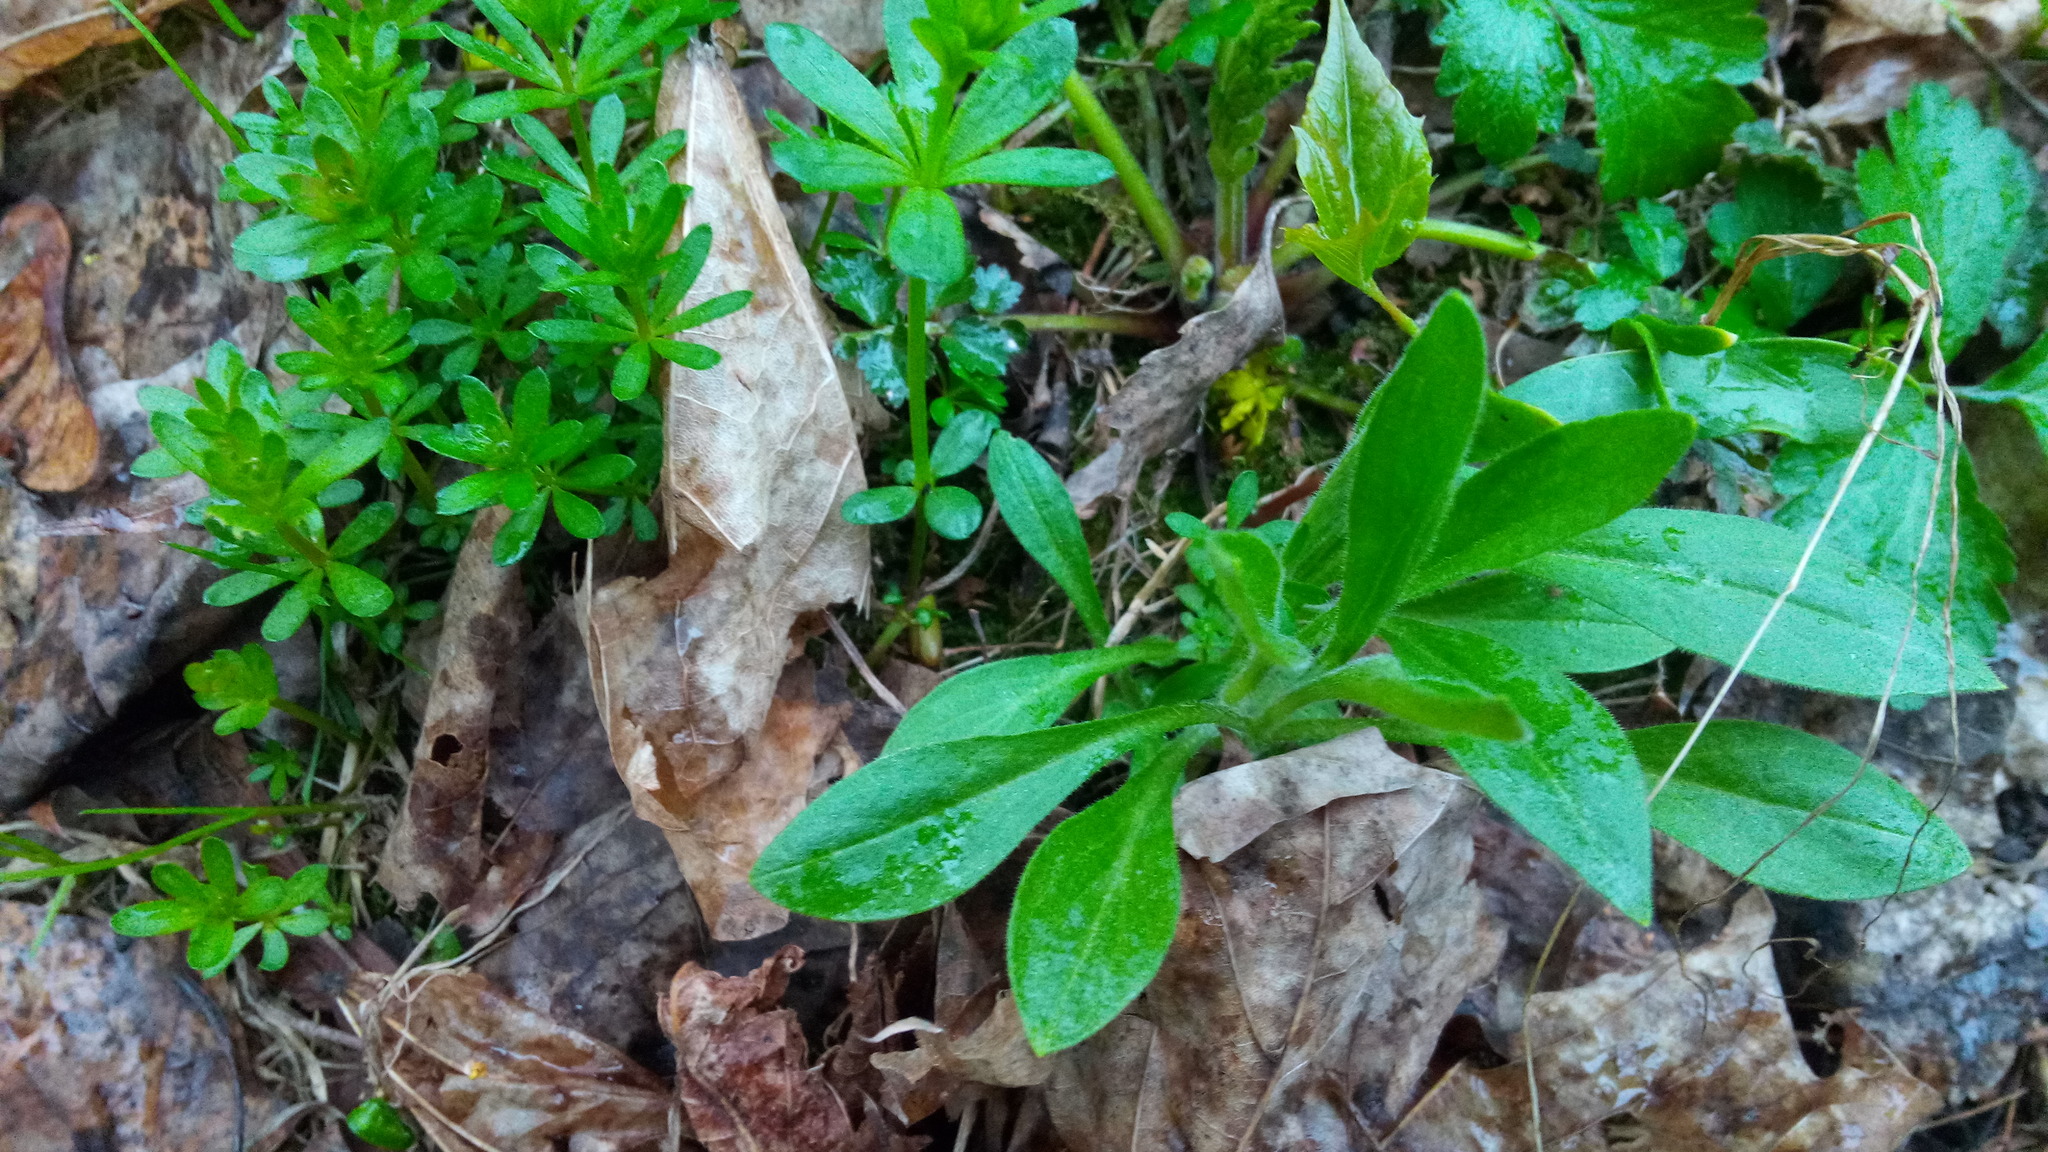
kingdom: Plantae
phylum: Tracheophyta
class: Magnoliopsida
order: Caryophyllales
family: Caryophyllaceae
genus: Silene
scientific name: Silene latifolia
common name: White campion
